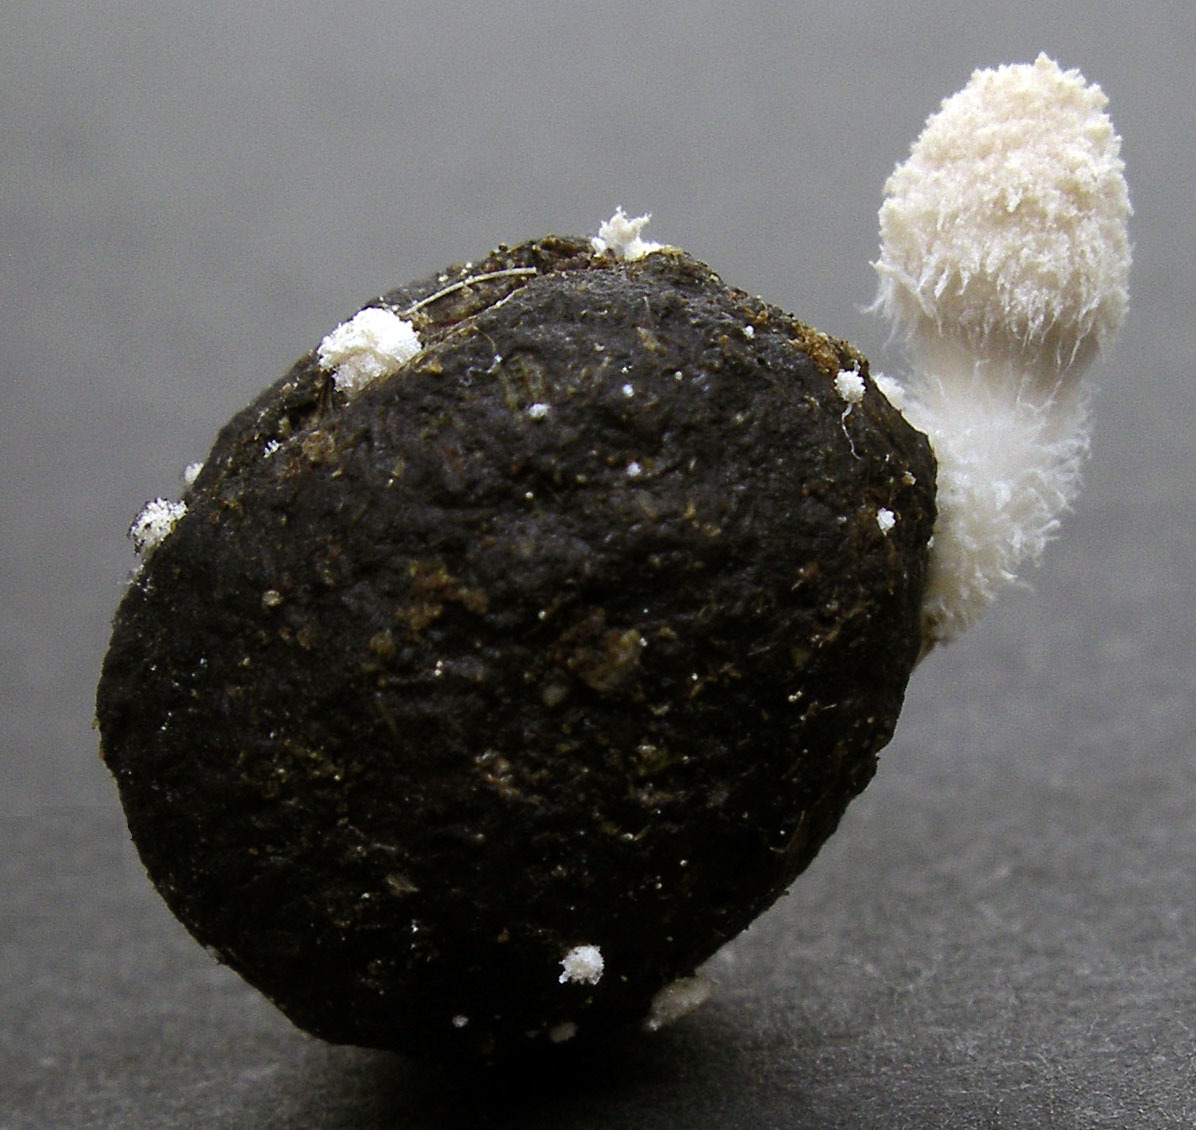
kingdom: Fungi
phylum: Basidiomycota
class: Agaricomycetes
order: Agaricales
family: Psathyrellaceae
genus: Coprinopsis
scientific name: Coprinopsis igarashii
